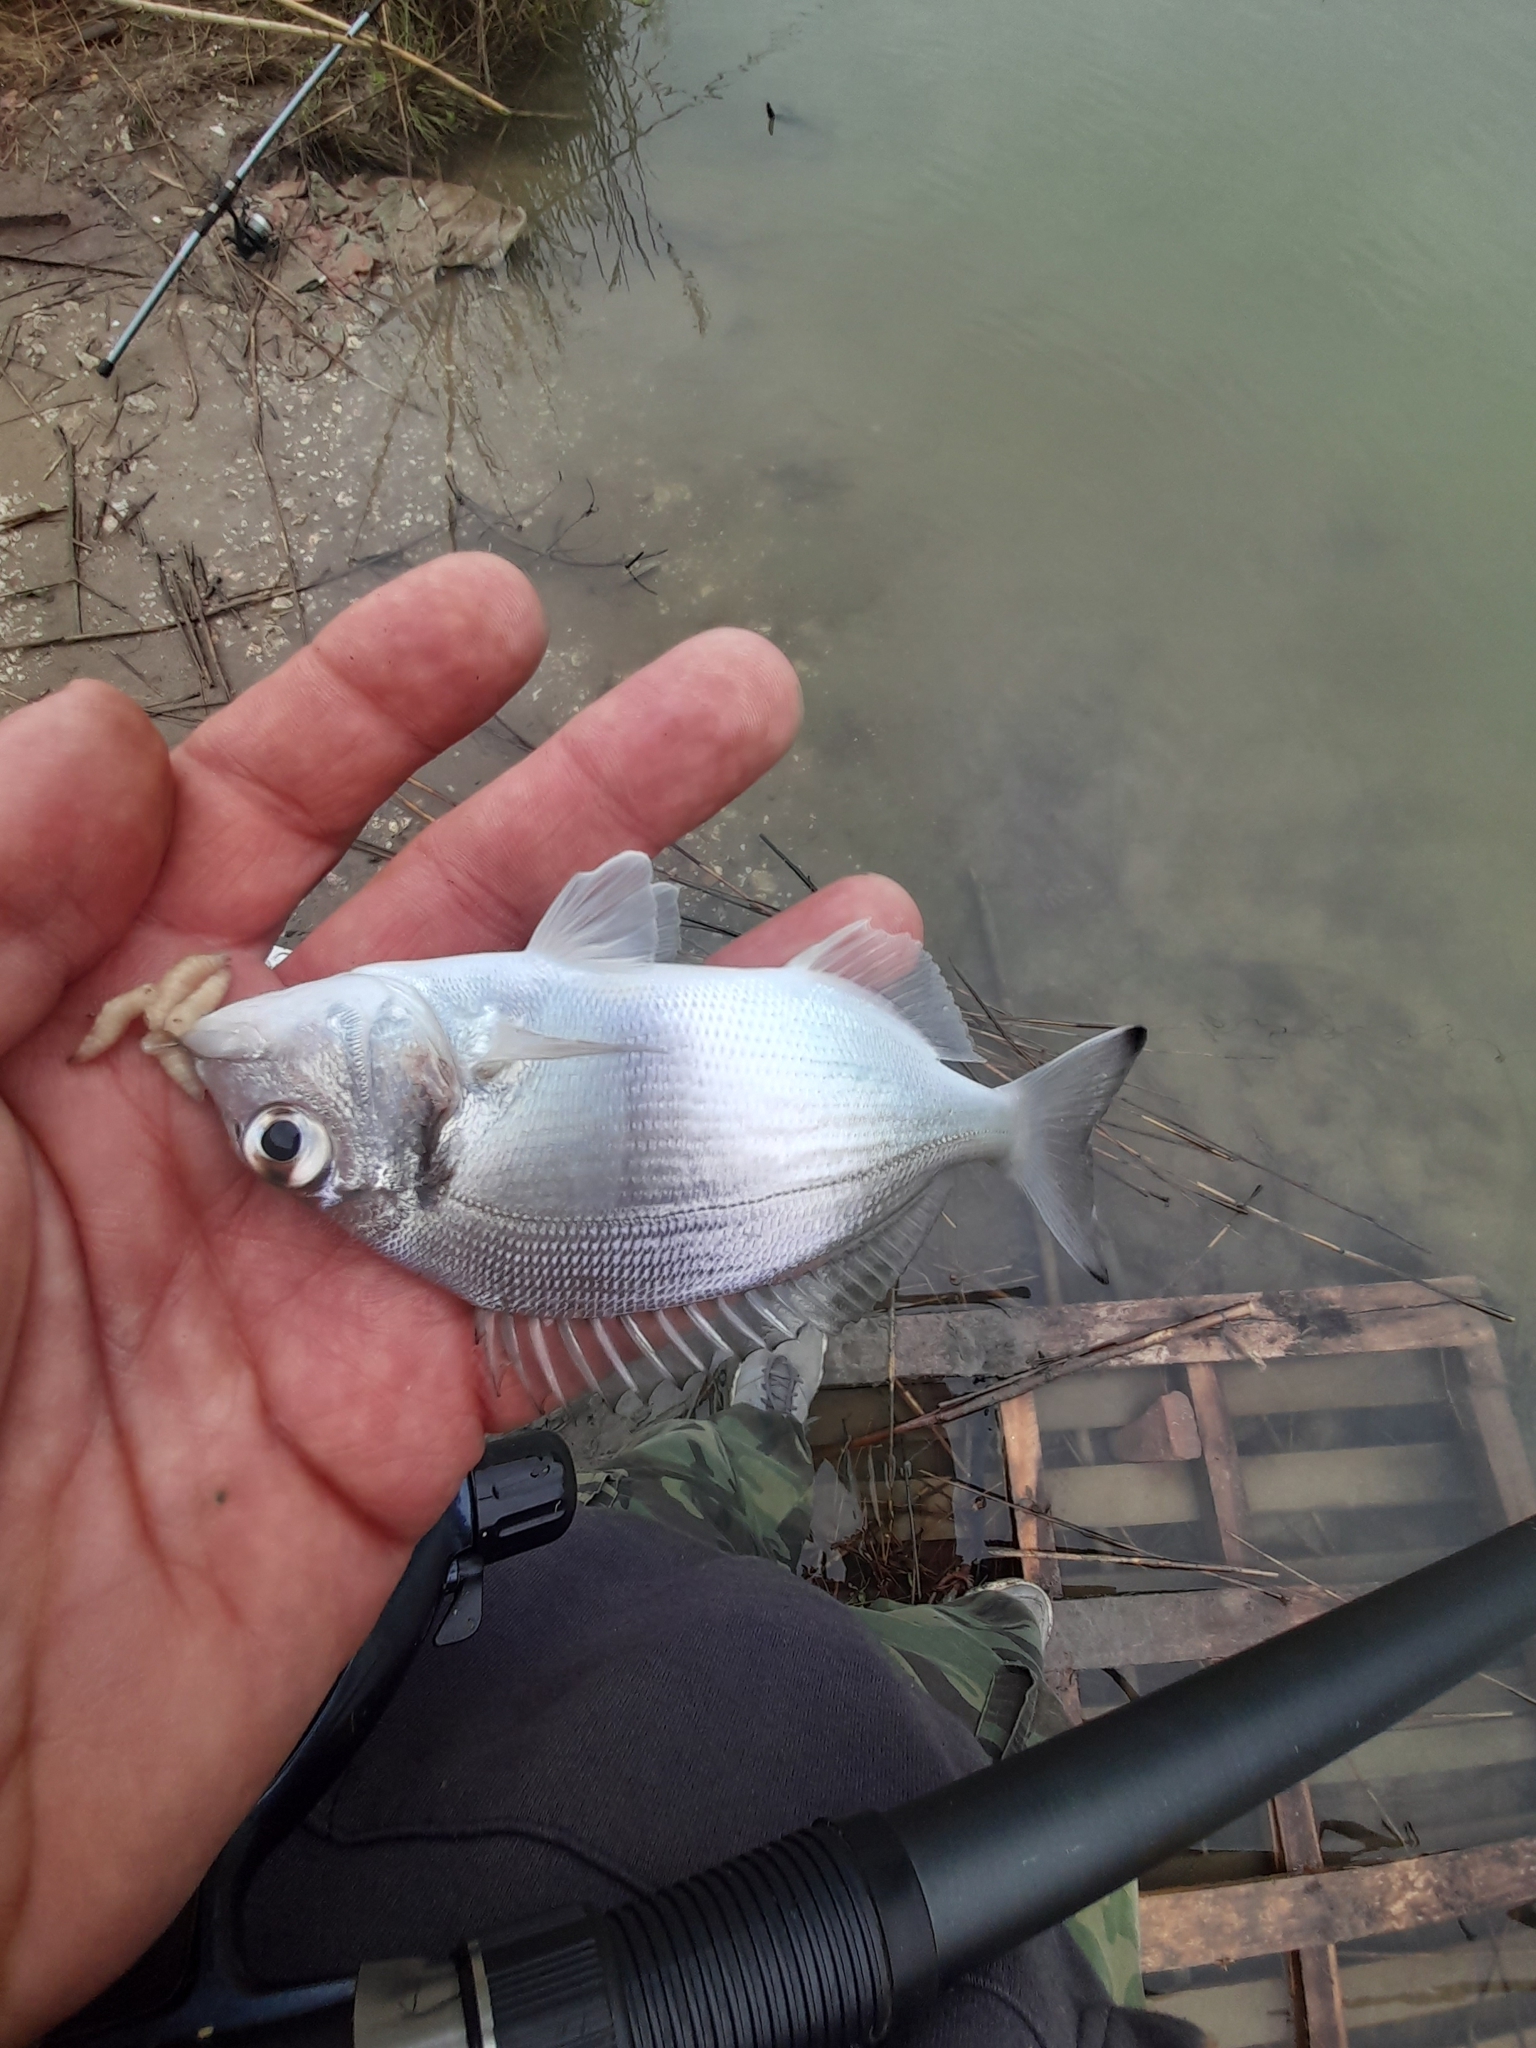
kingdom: Animalia
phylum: Chordata
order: Perciformes
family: Sparidae
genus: Sparus
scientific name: Sparus aurata
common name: Gilthead
